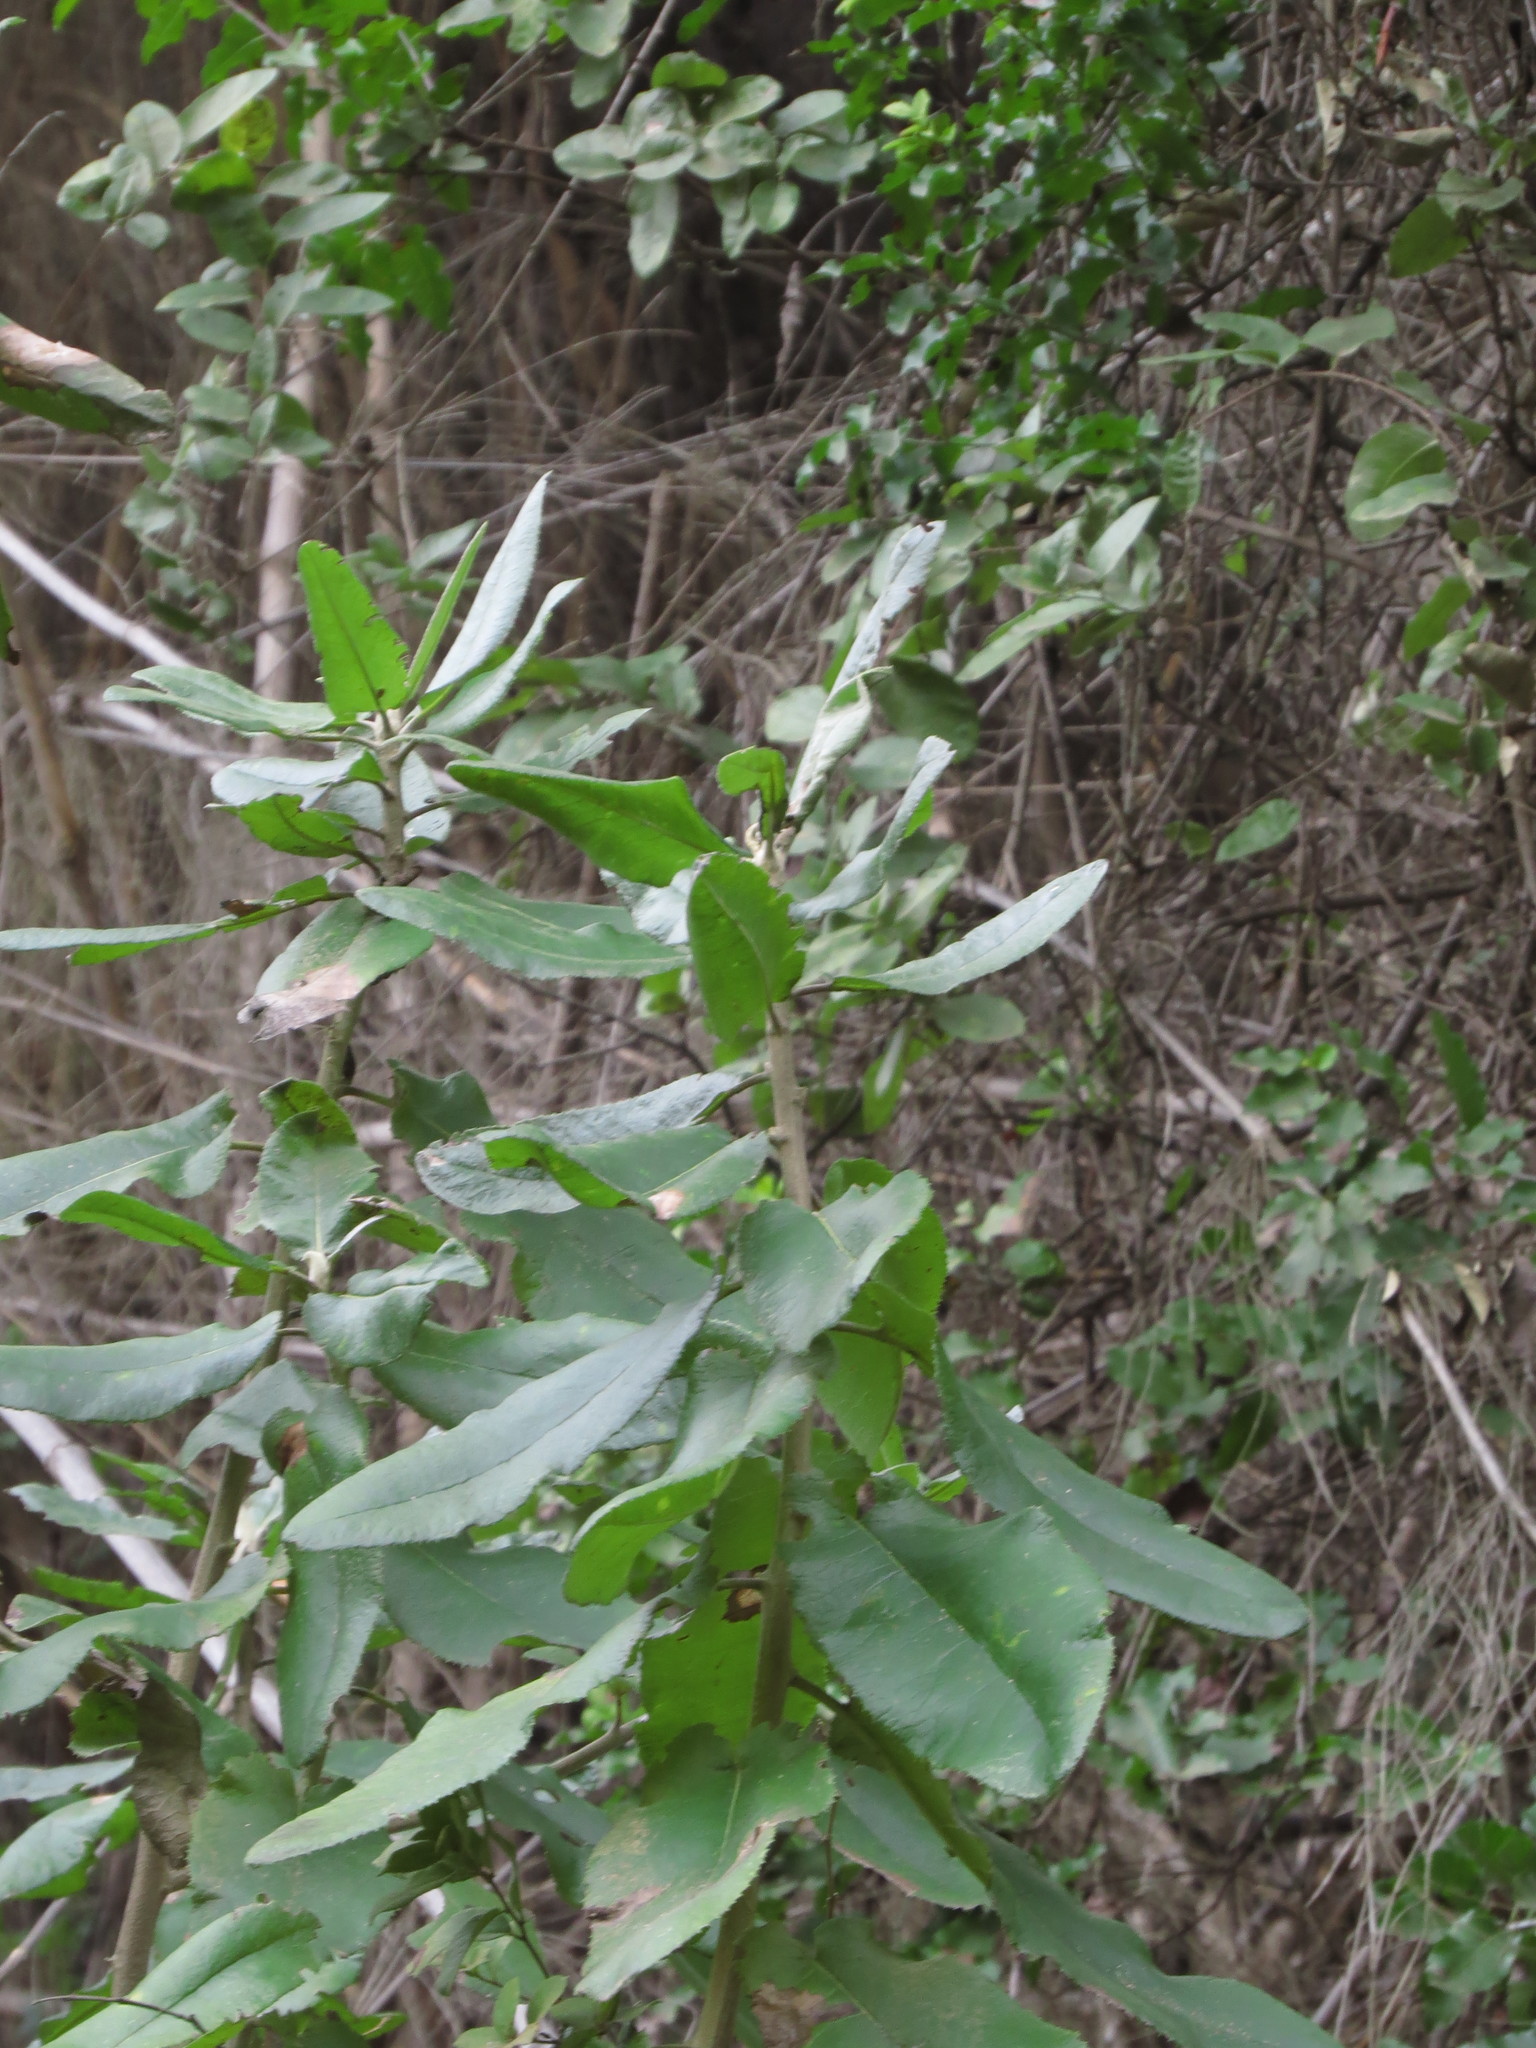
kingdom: Plantae
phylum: Tracheophyta
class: Magnoliopsida
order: Asterales
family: Asteraceae
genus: Acrisione
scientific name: Acrisione denticulata
